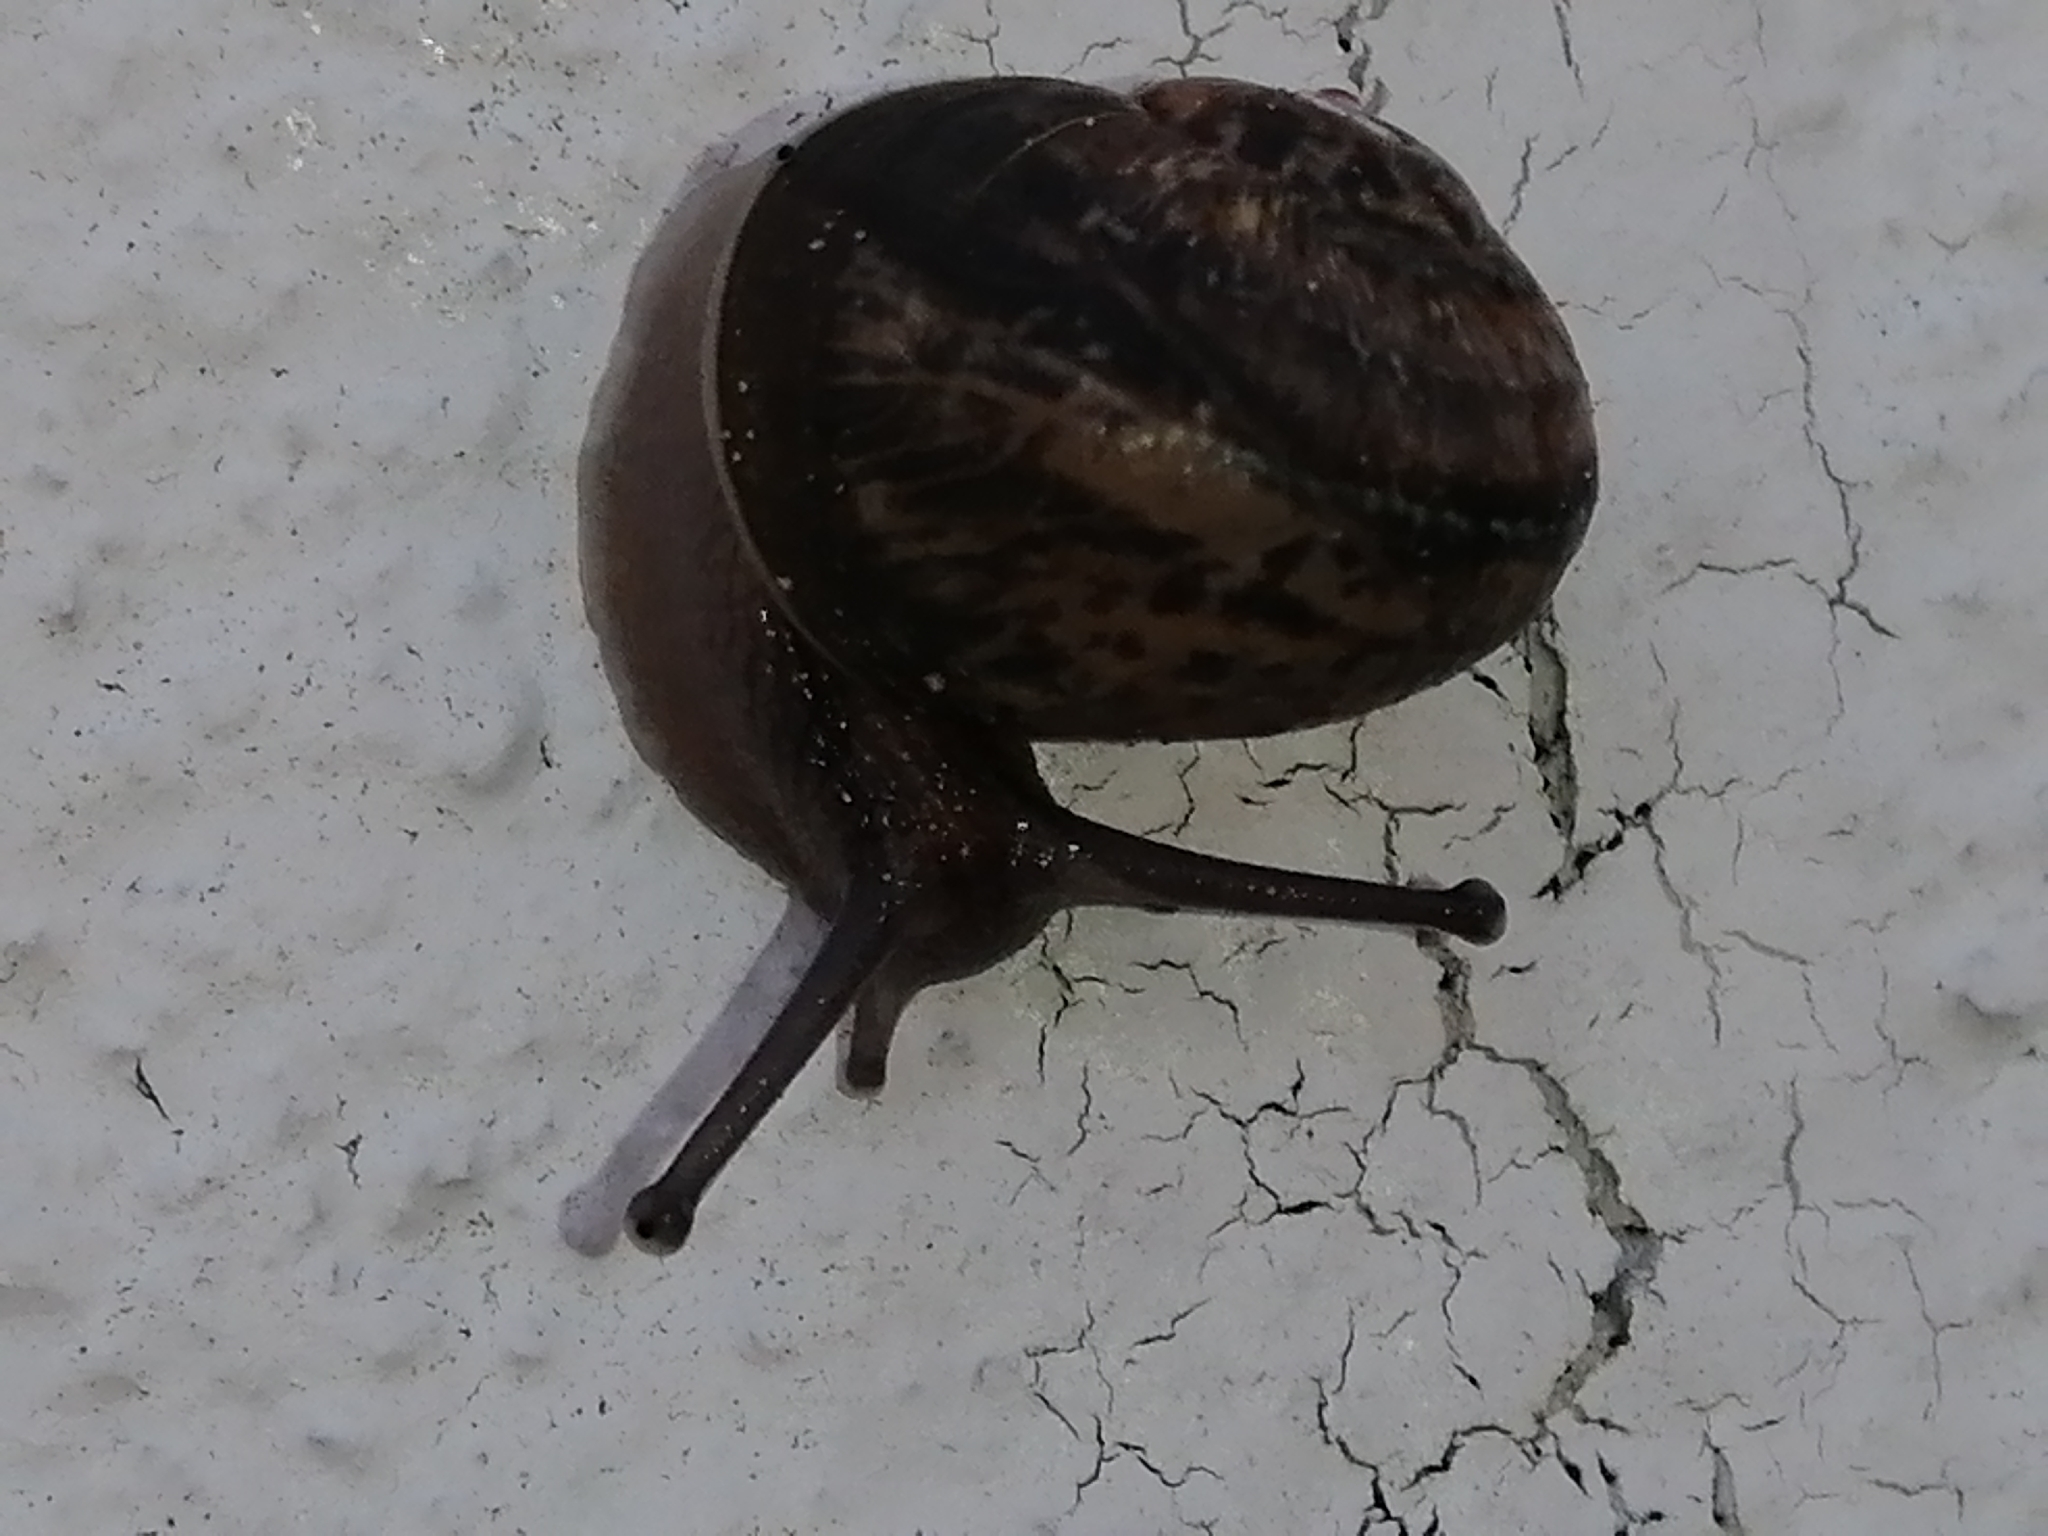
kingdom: Animalia
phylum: Mollusca
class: Gastropoda
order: Stylommatophora
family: Helicidae
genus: Cornu
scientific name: Cornu aspersum
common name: Brown garden snail
